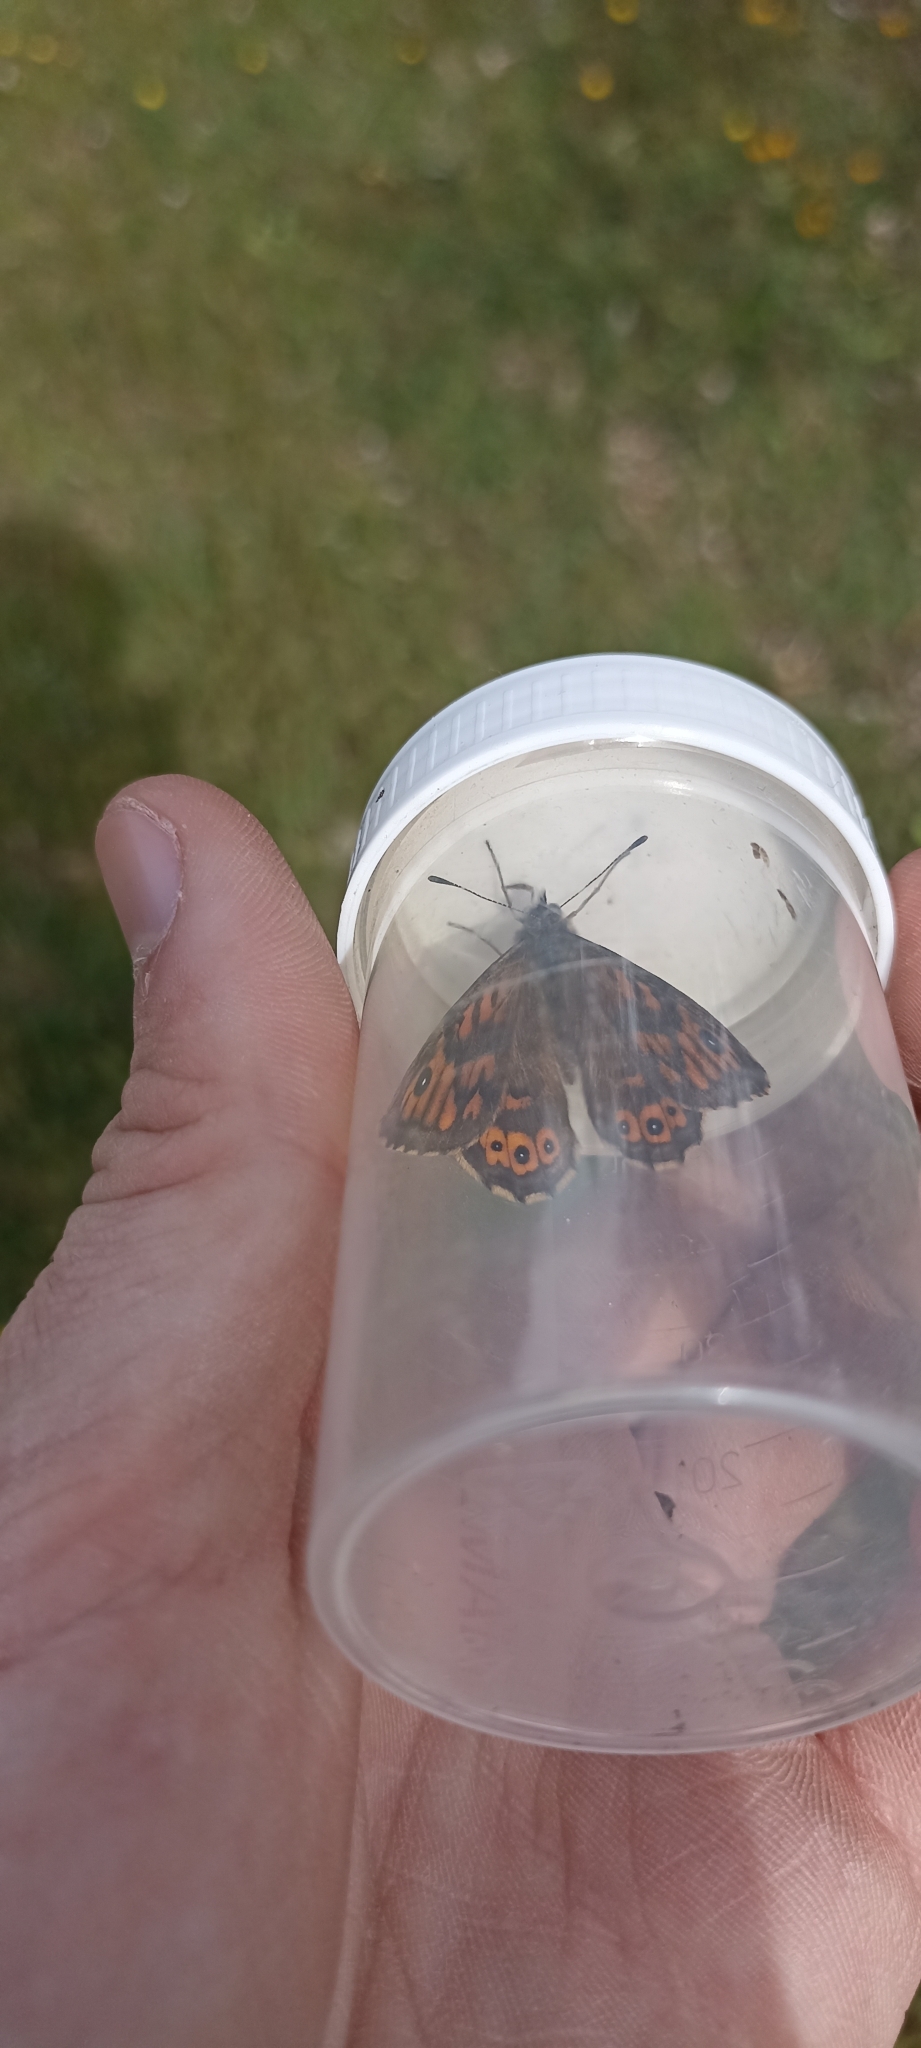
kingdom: Animalia
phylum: Arthropoda
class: Insecta
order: Lepidoptera
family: Nymphalidae
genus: Pararge
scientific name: Pararge Lasiommata megera
